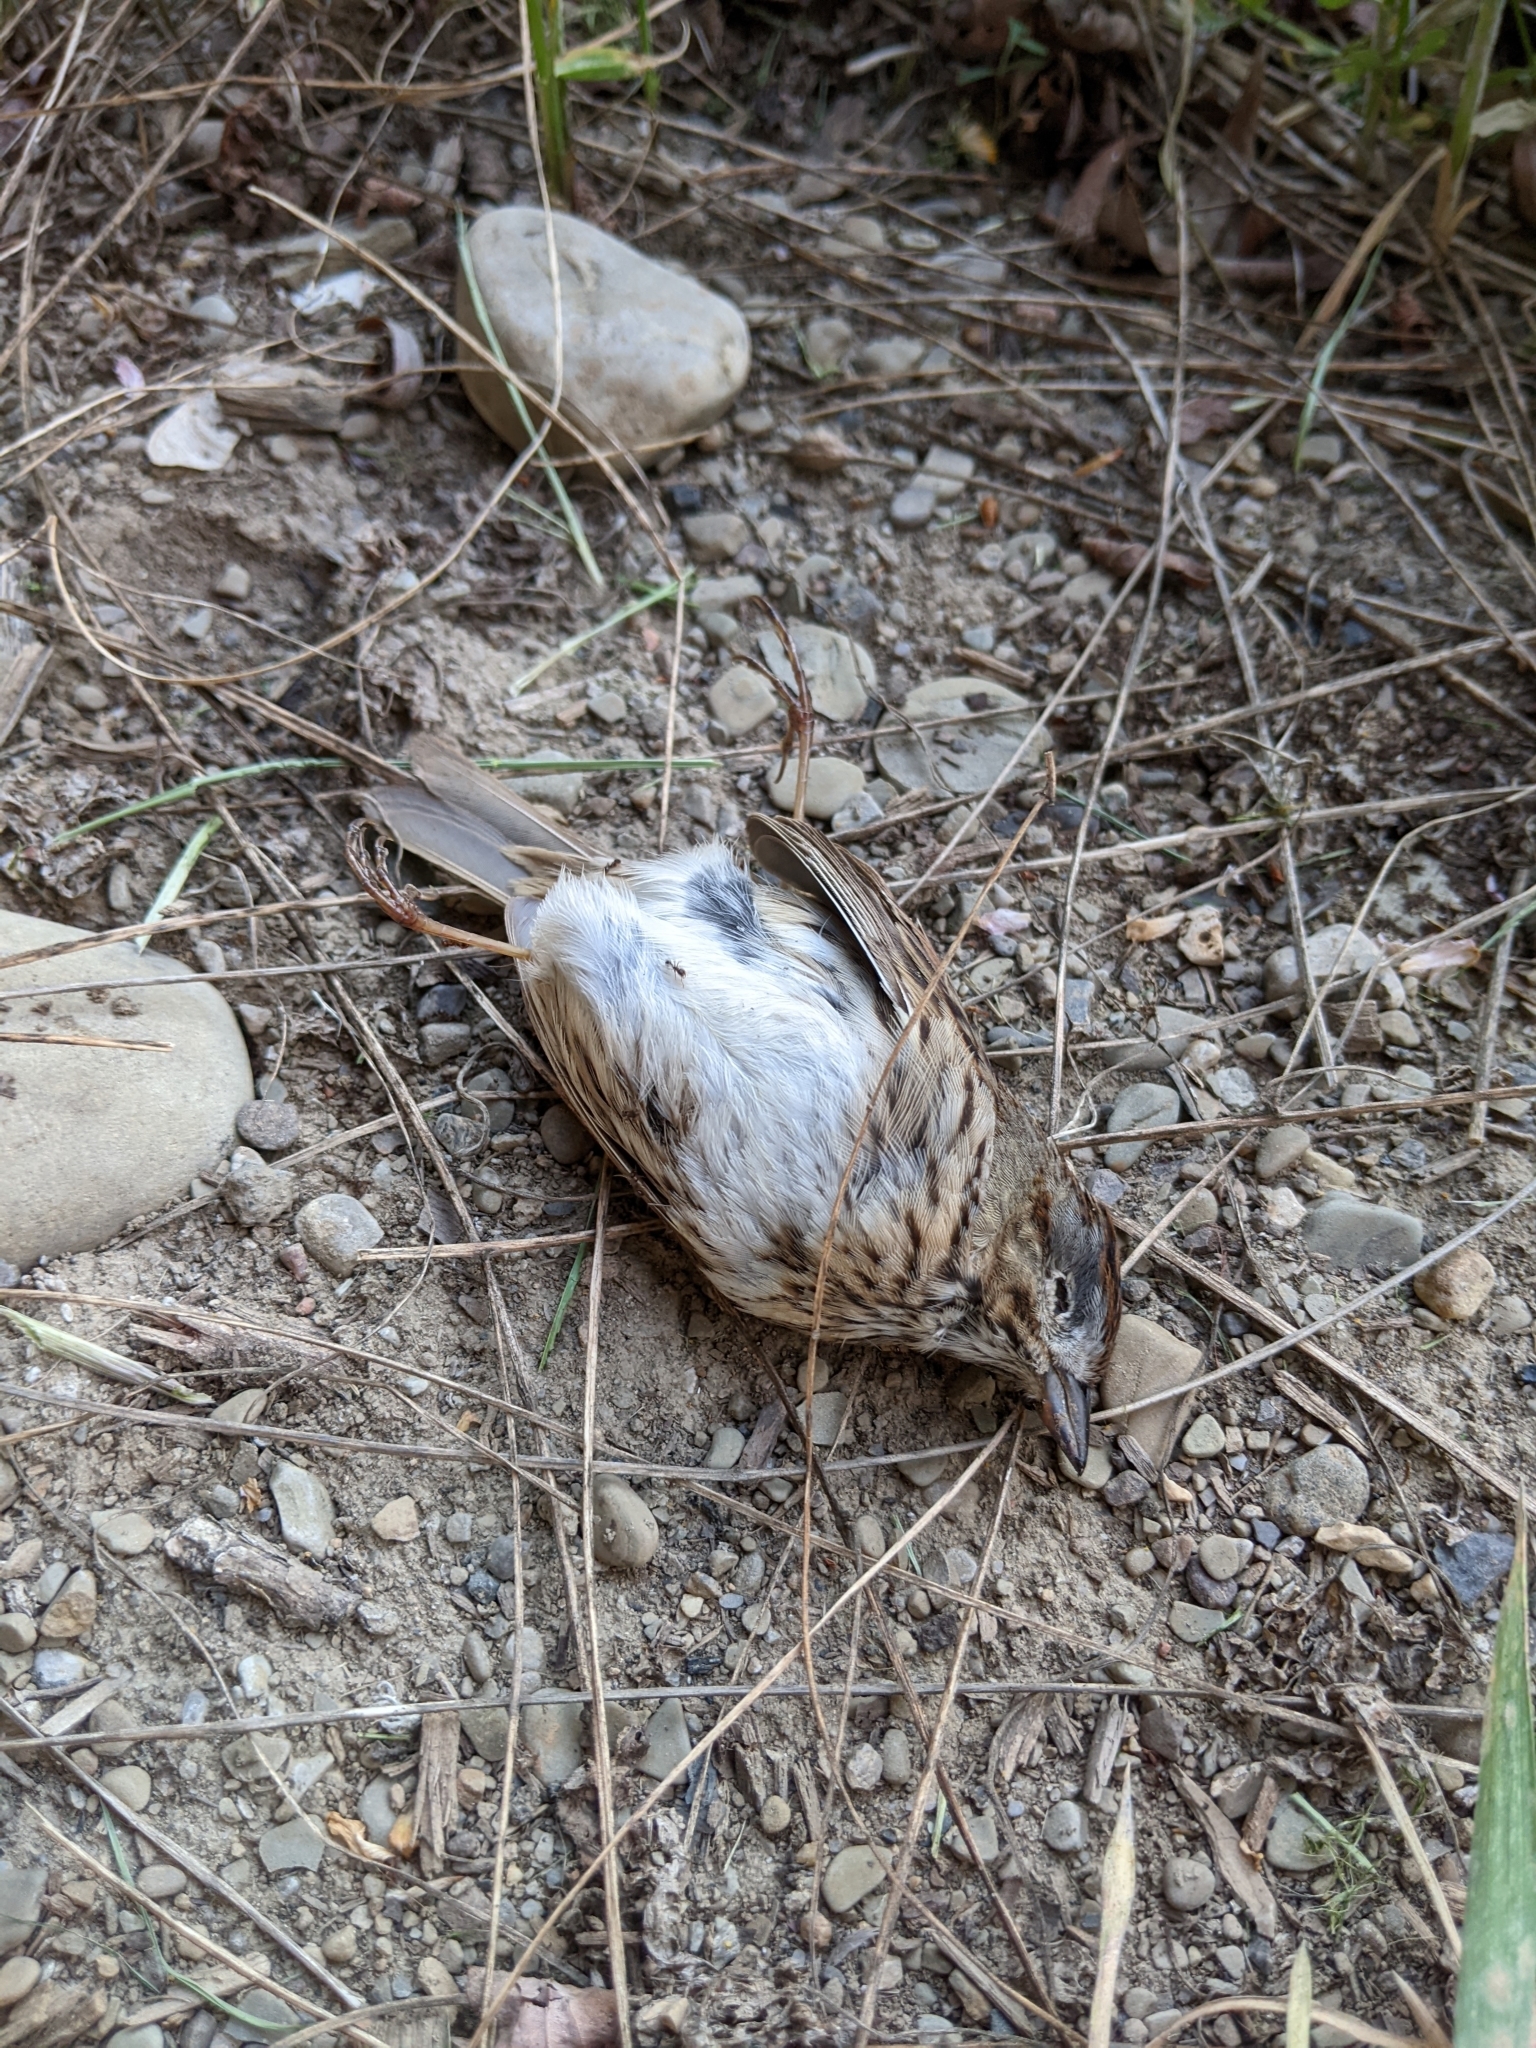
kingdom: Animalia
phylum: Chordata
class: Aves
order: Passeriformes
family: Passerellidae
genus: Melospiza
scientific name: Melospiza lincolnii
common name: Lincoln's sparrow
